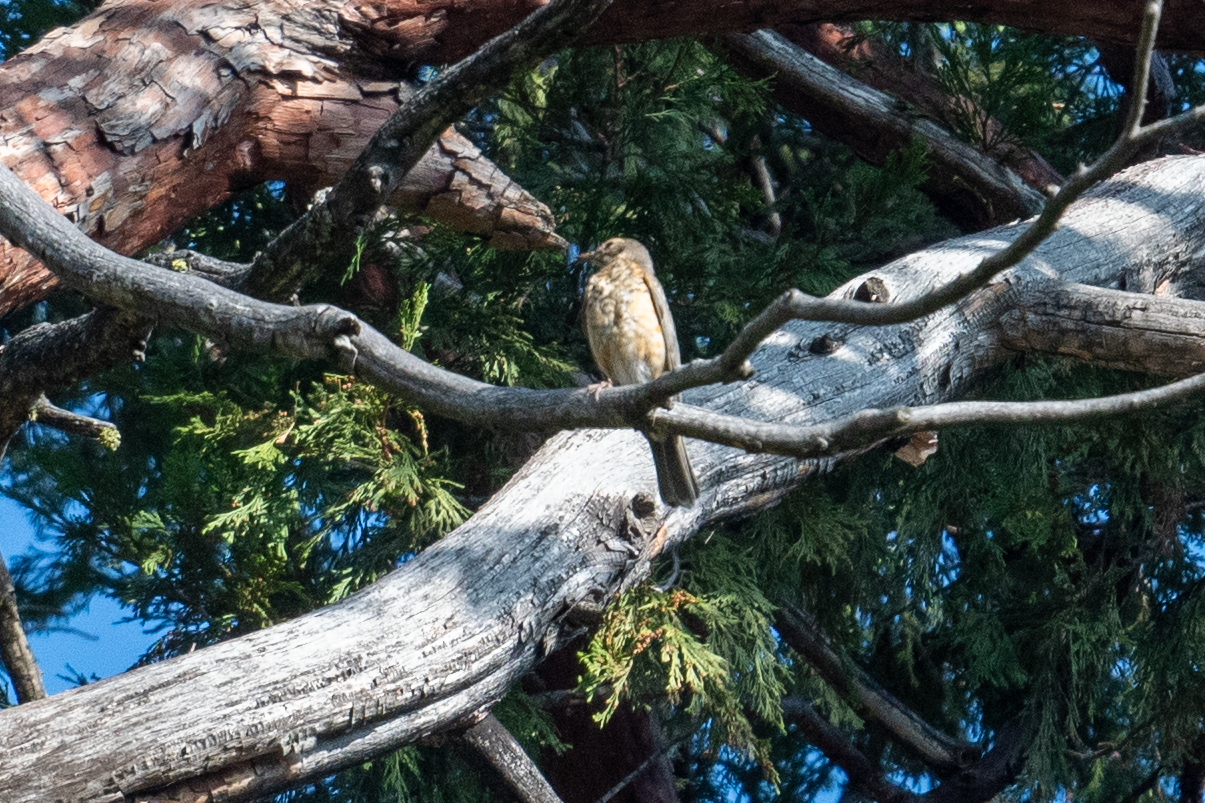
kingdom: Animalia
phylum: Chordata
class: Aves
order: Passeriformes
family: Turdidae
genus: Turdus
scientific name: Turdus migratorius
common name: American robin
